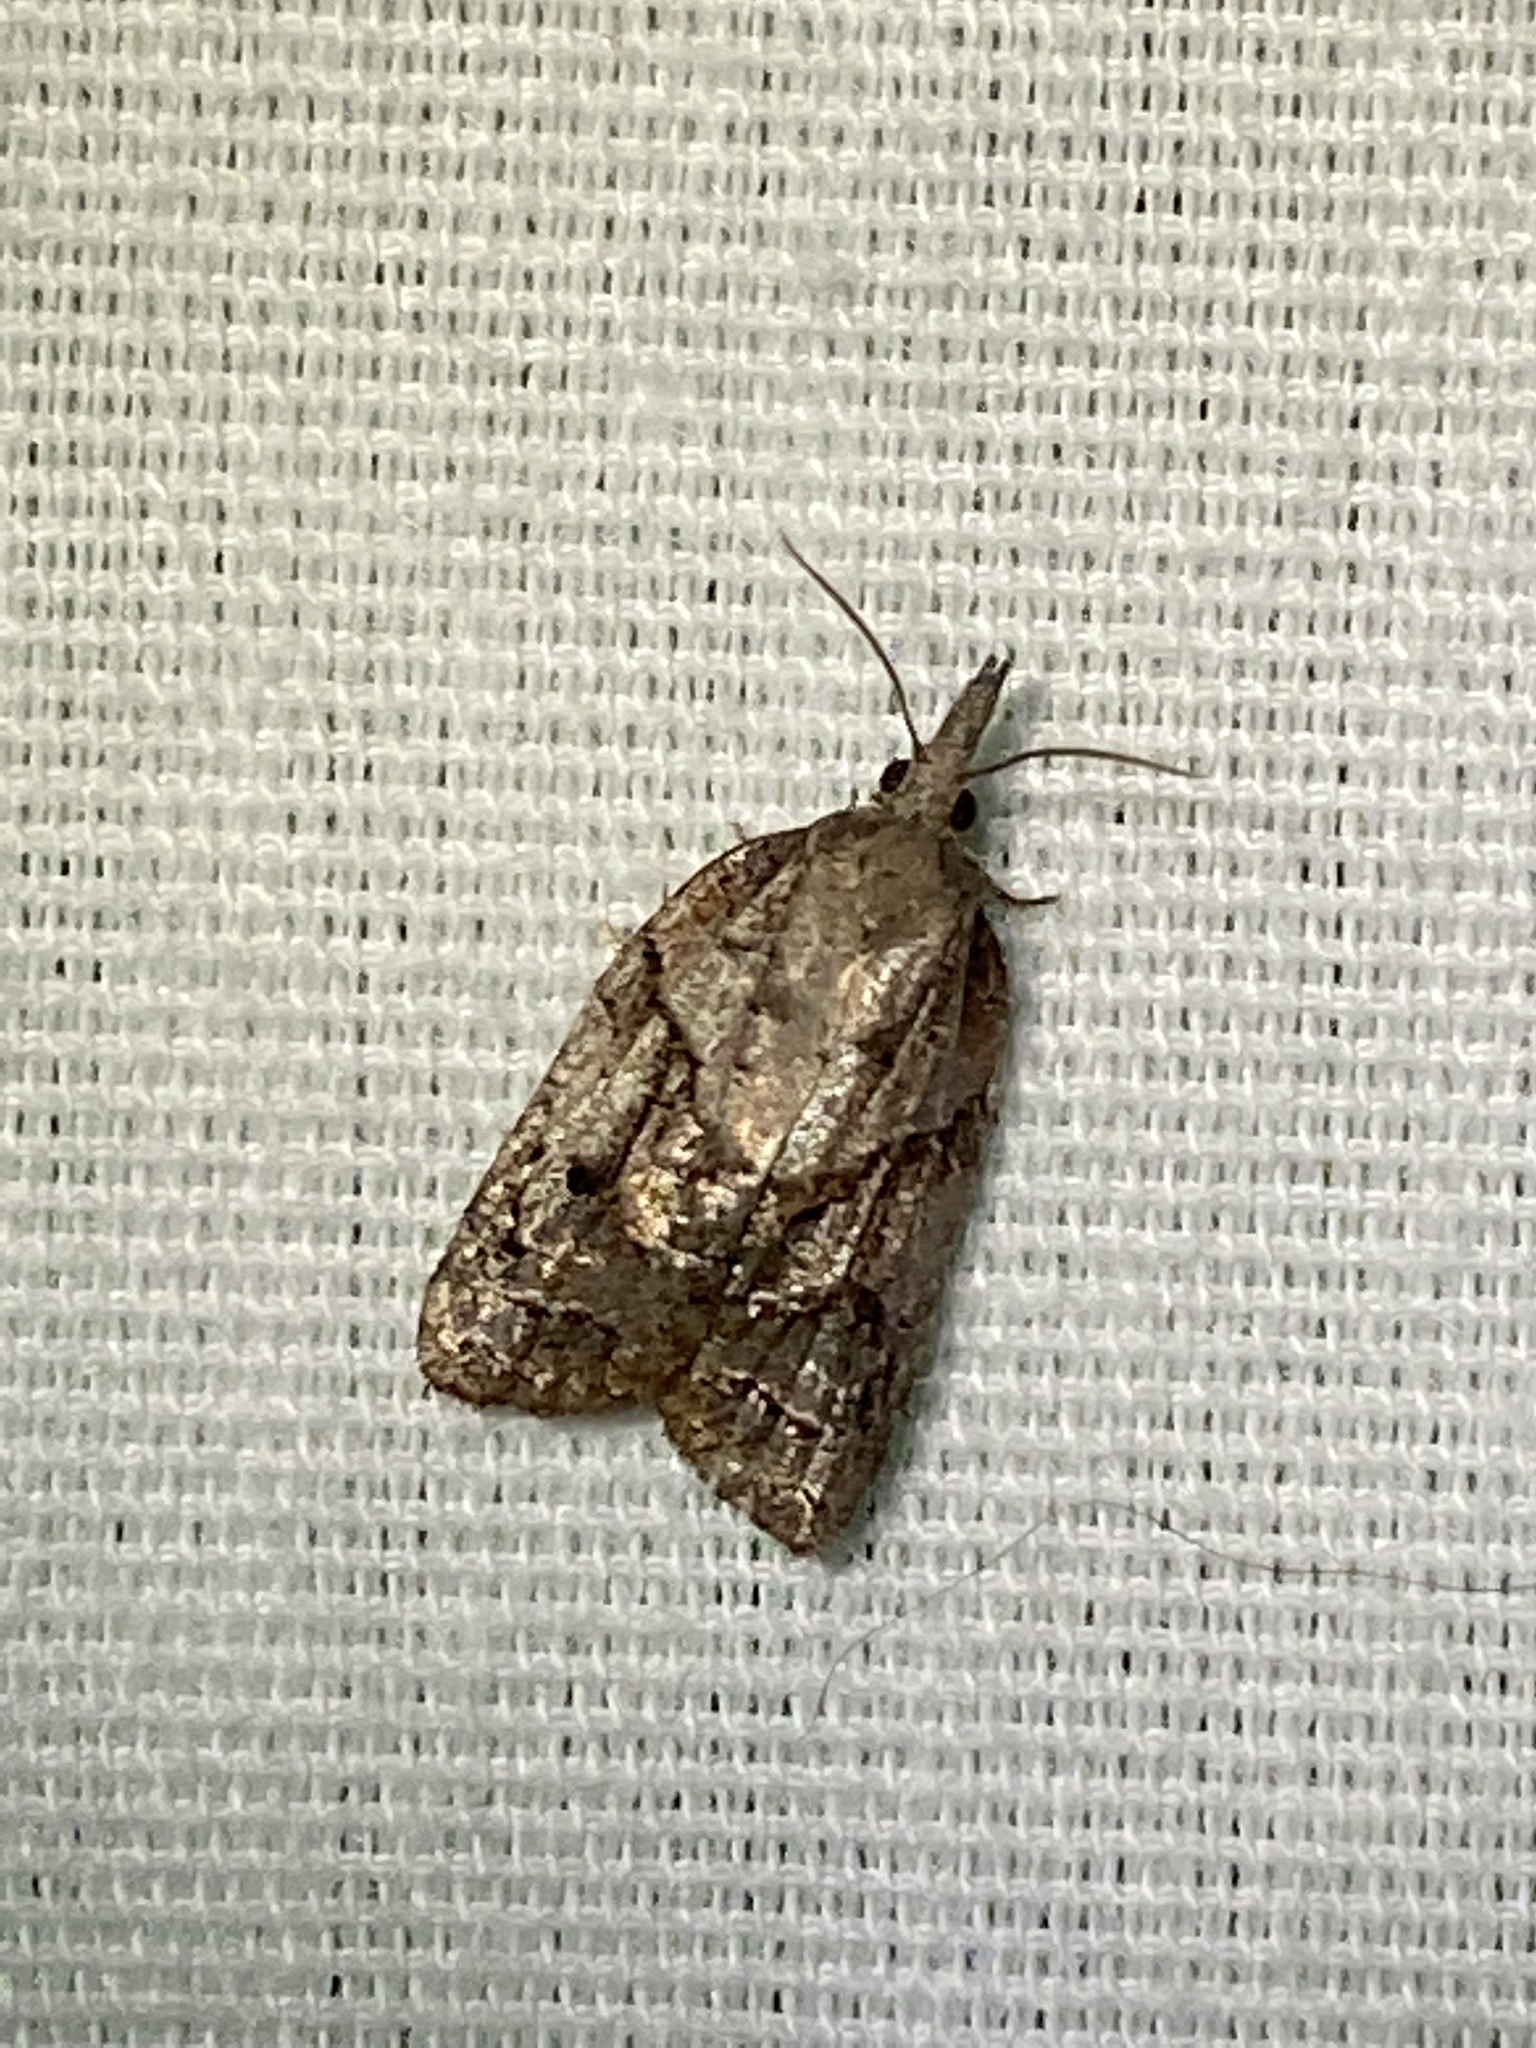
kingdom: Animalia
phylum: Arthropoda
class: Insecta
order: Lepidoptera
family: Tortricidae
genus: Platynota
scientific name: Platynota idaeusalis
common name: Tufted apple bud moth
